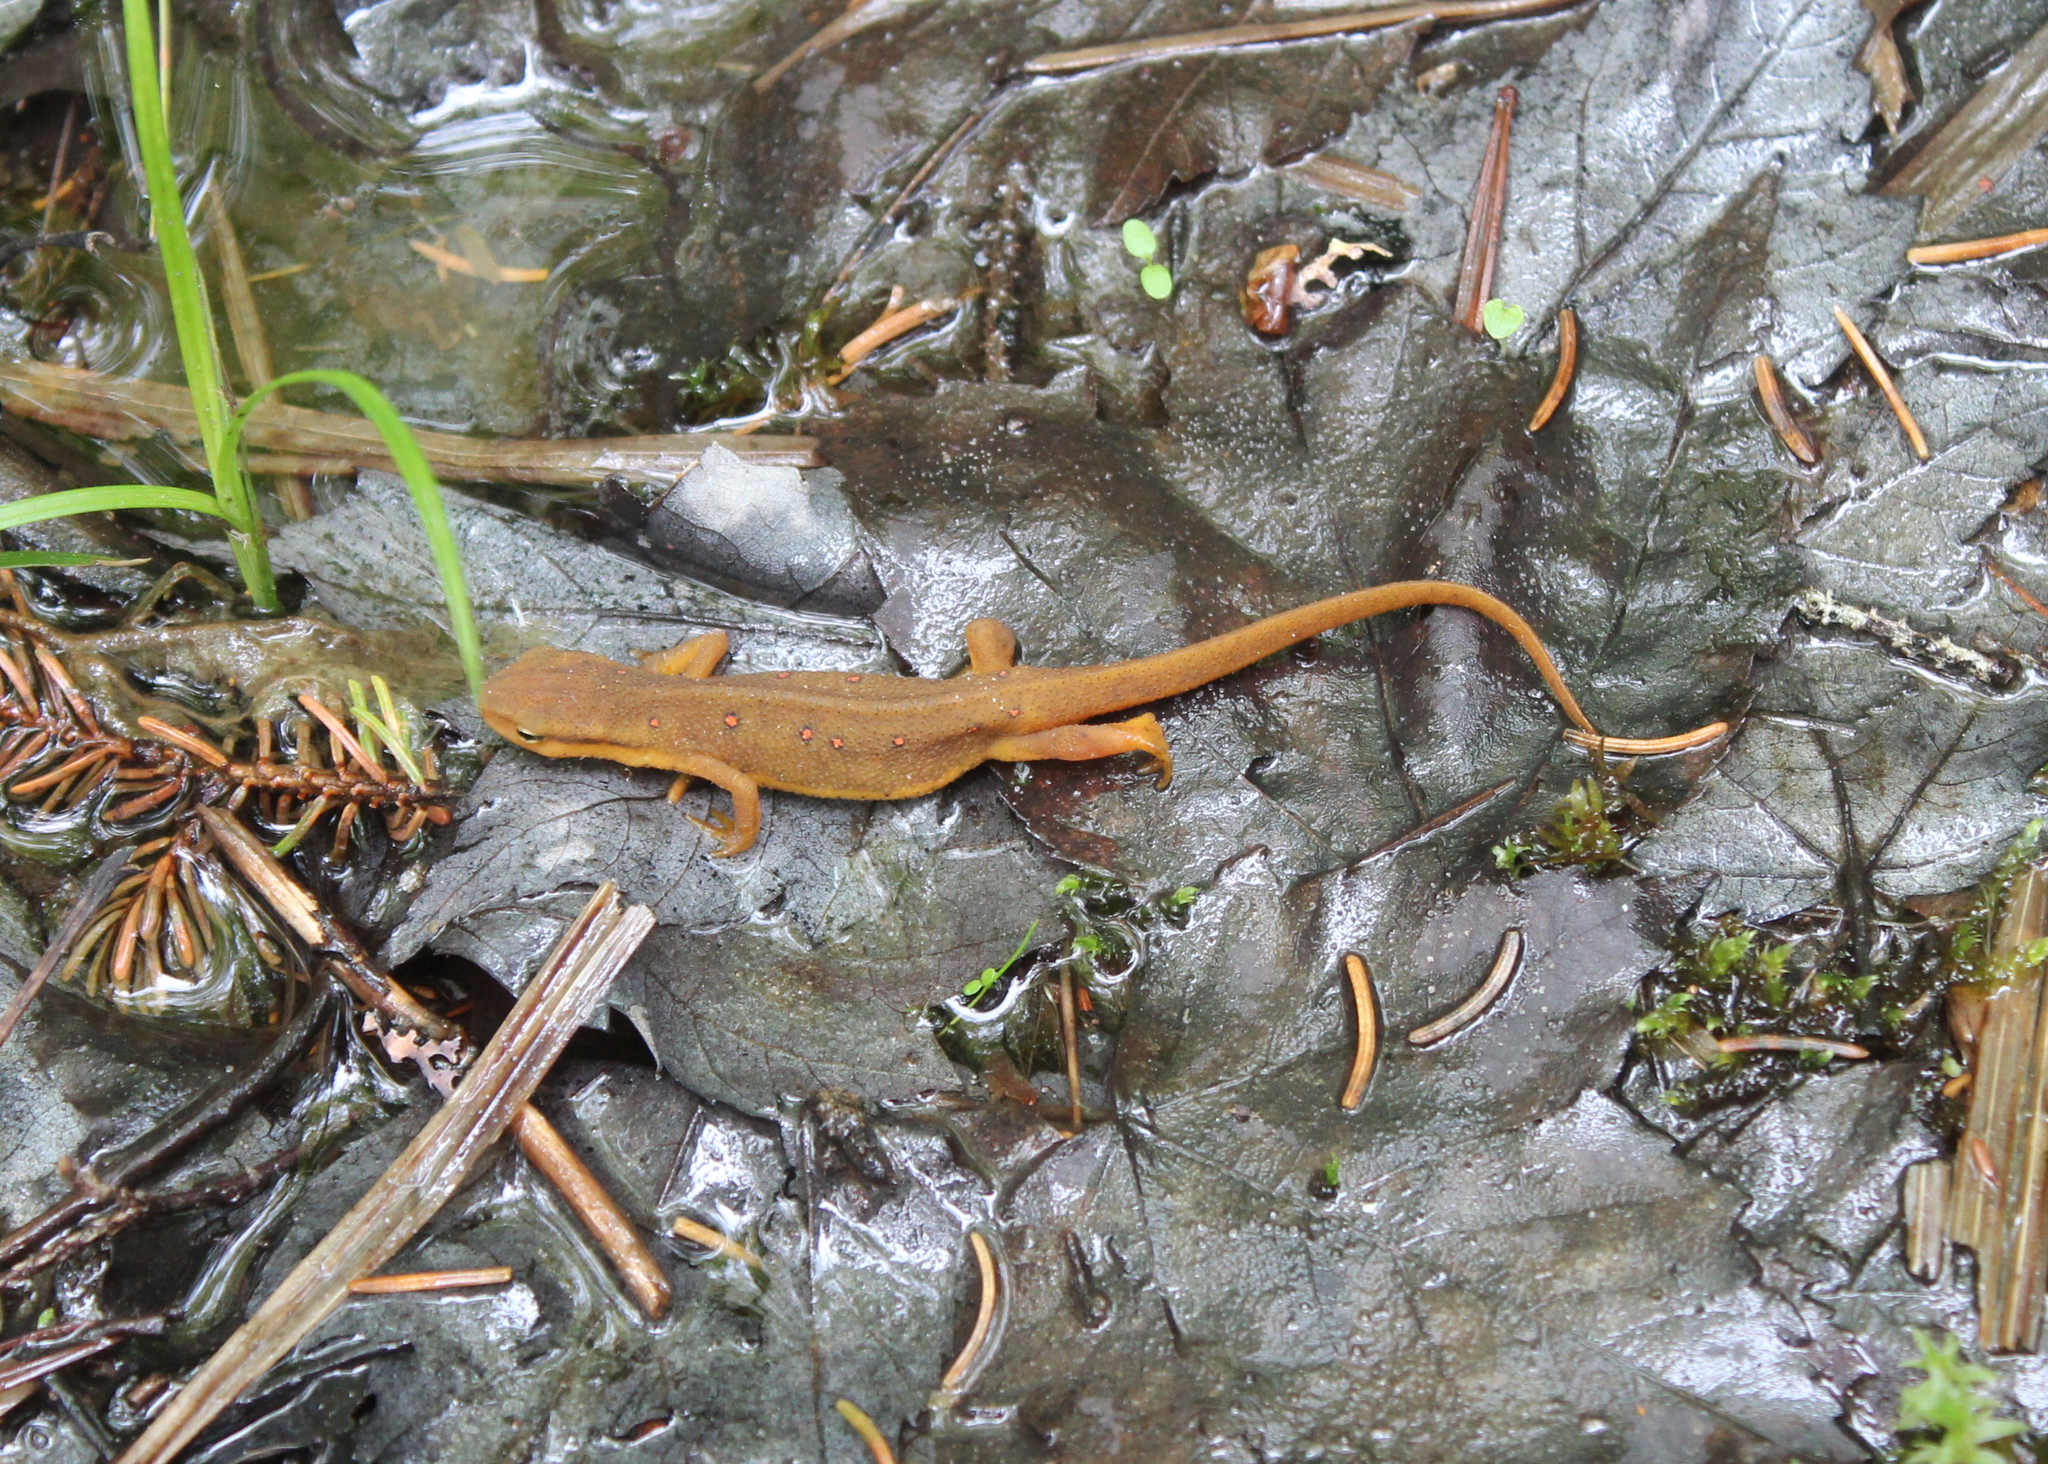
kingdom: Animalia
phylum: Chordata
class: Amphibia
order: Caudata
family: Salamandridae
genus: Notophthalmus
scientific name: Notophthalmus viridescens
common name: Eastern newt
